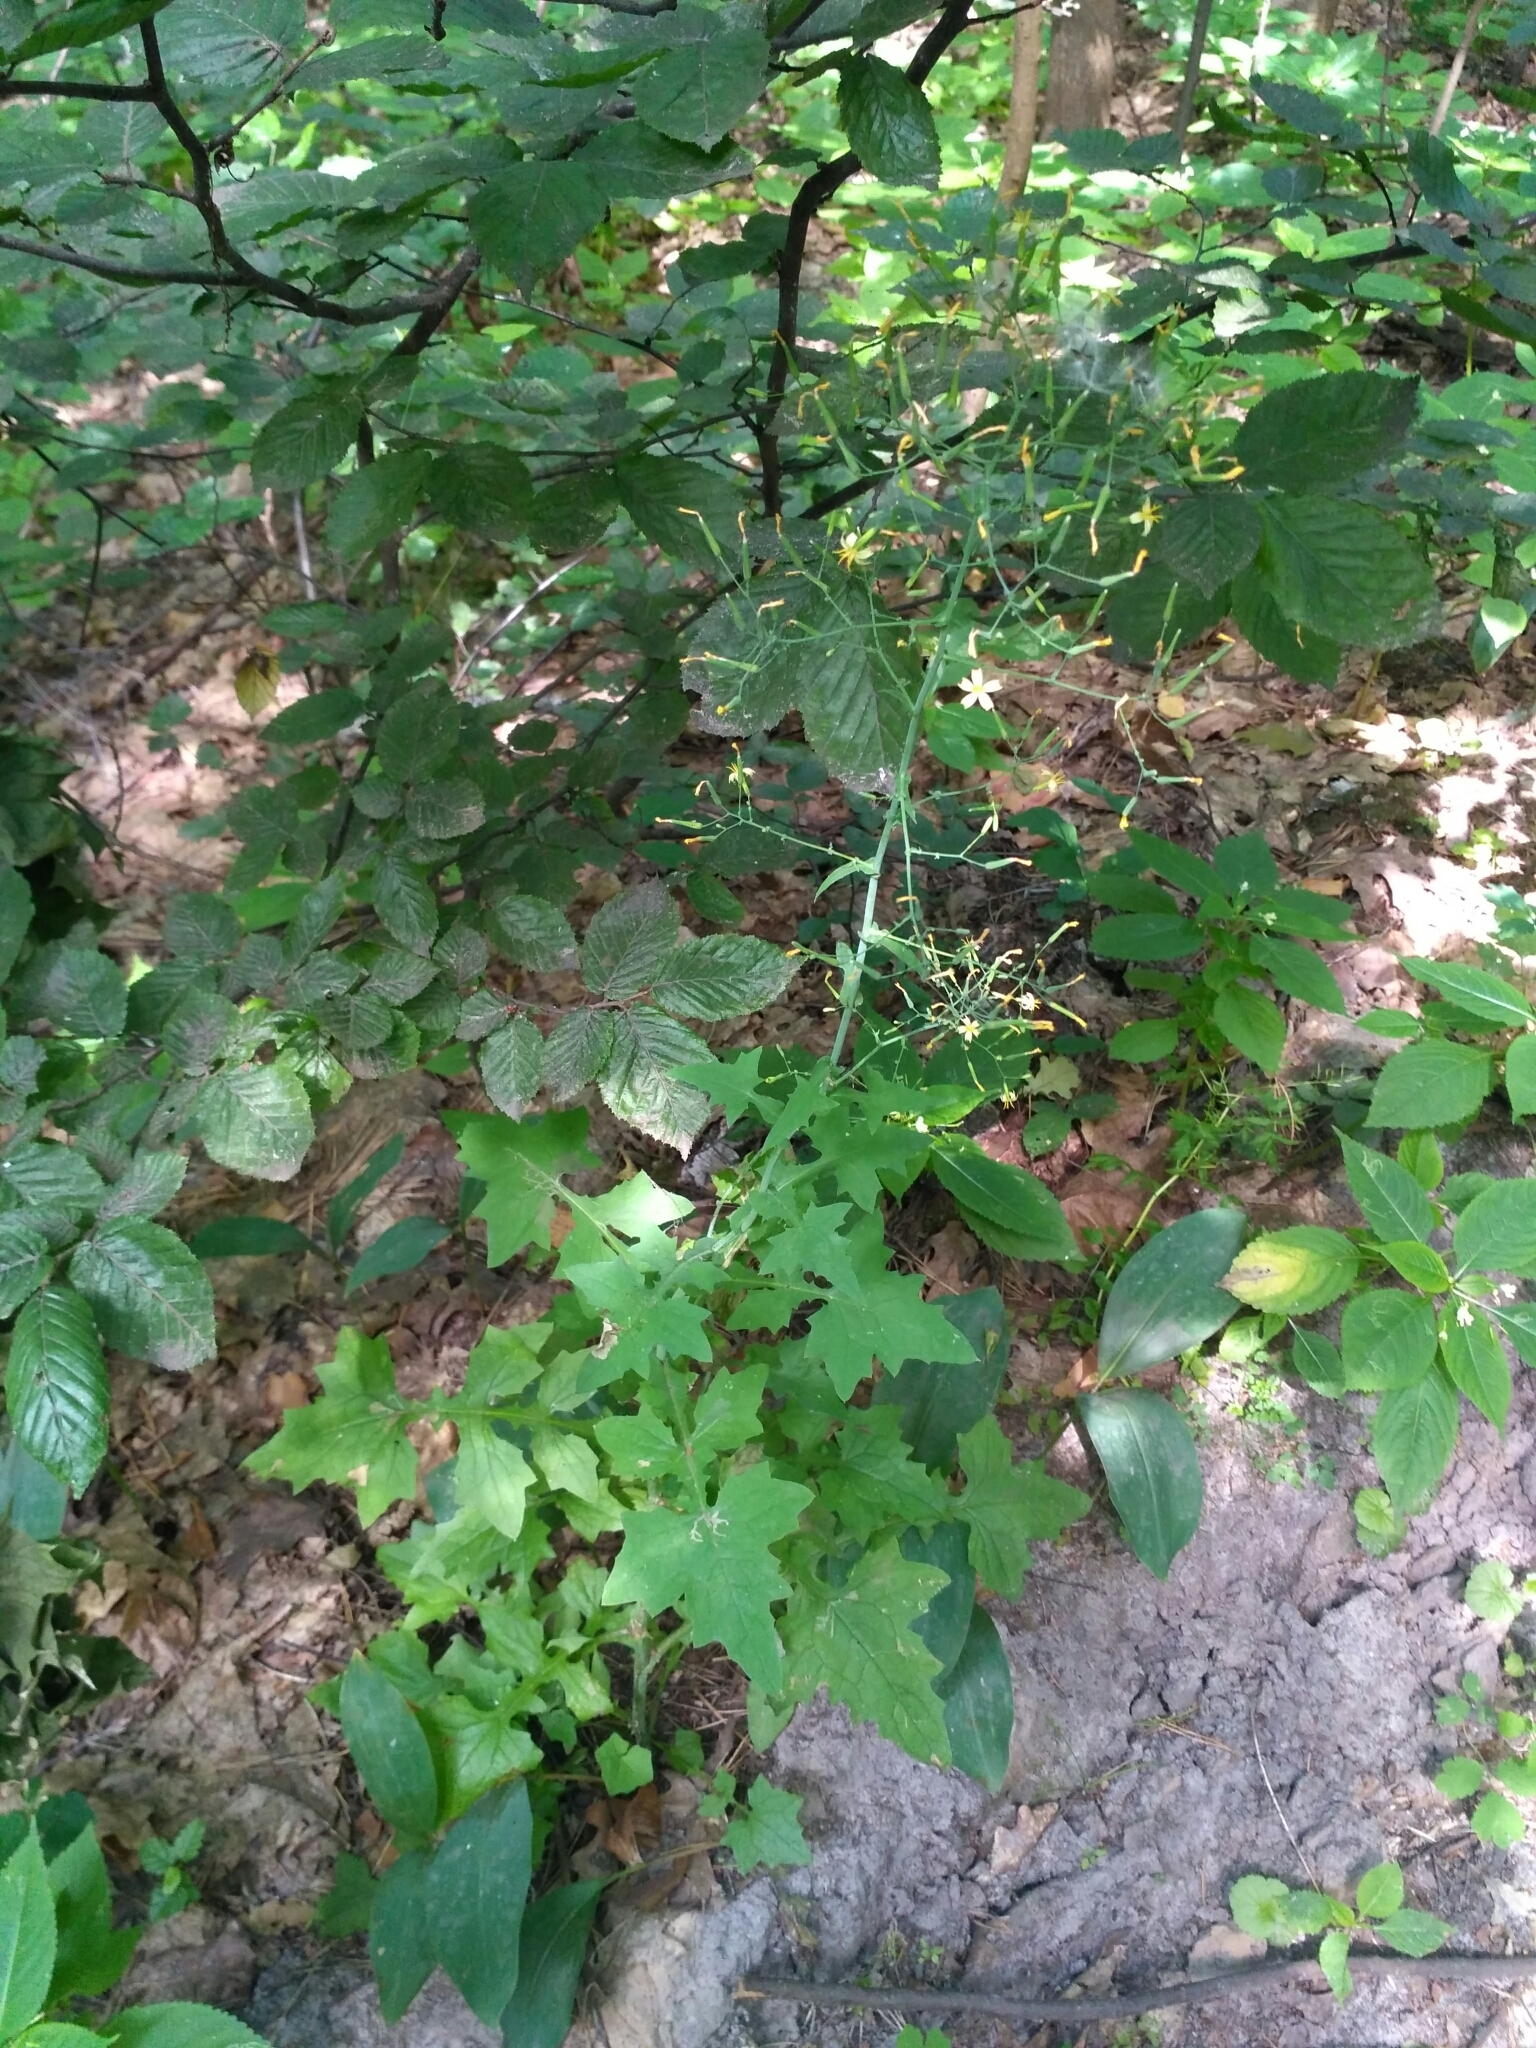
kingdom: Plantae
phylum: Tracheophyta
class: Magnoliopsida
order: Asterales
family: Asteraceae
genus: Mycelis
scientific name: Mycelis muralis
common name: Wall lettuce
